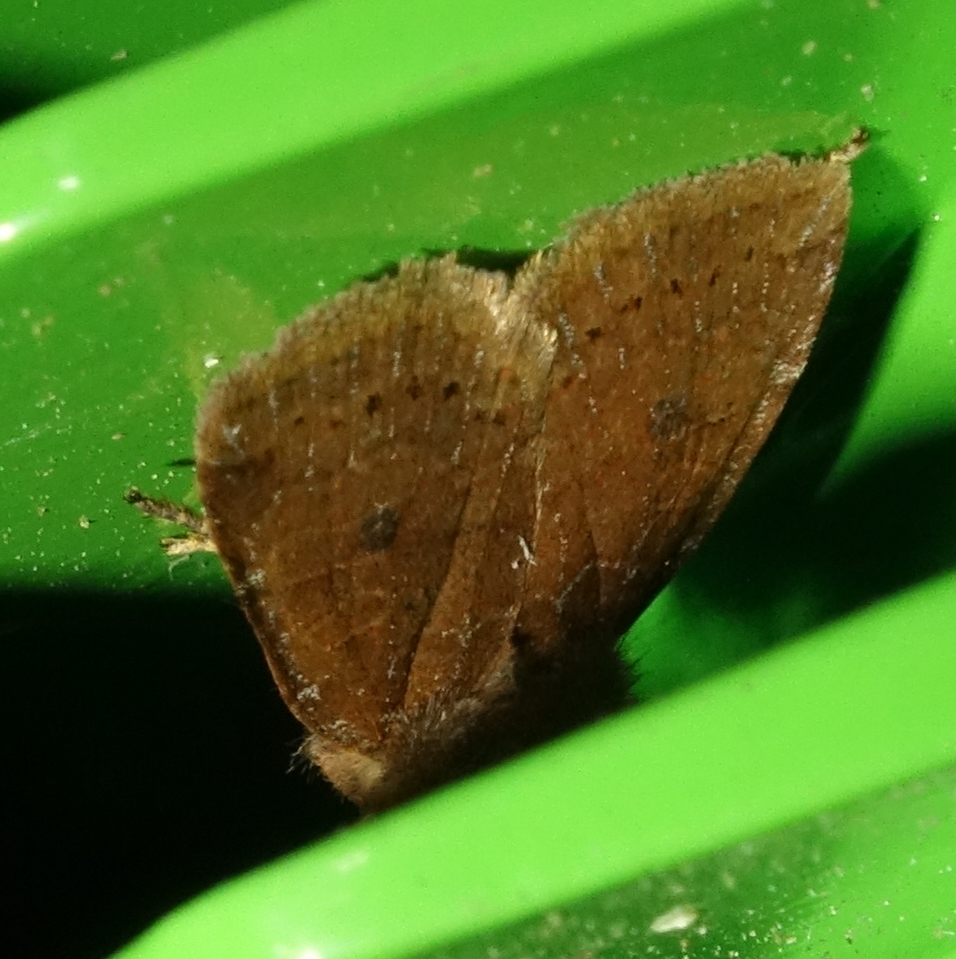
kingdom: Animalia
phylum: Arthropoda
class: Insecta
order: Lepidoptera
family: Noctuidae
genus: Conistra
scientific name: Conistra vaccinii
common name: Chestnut
